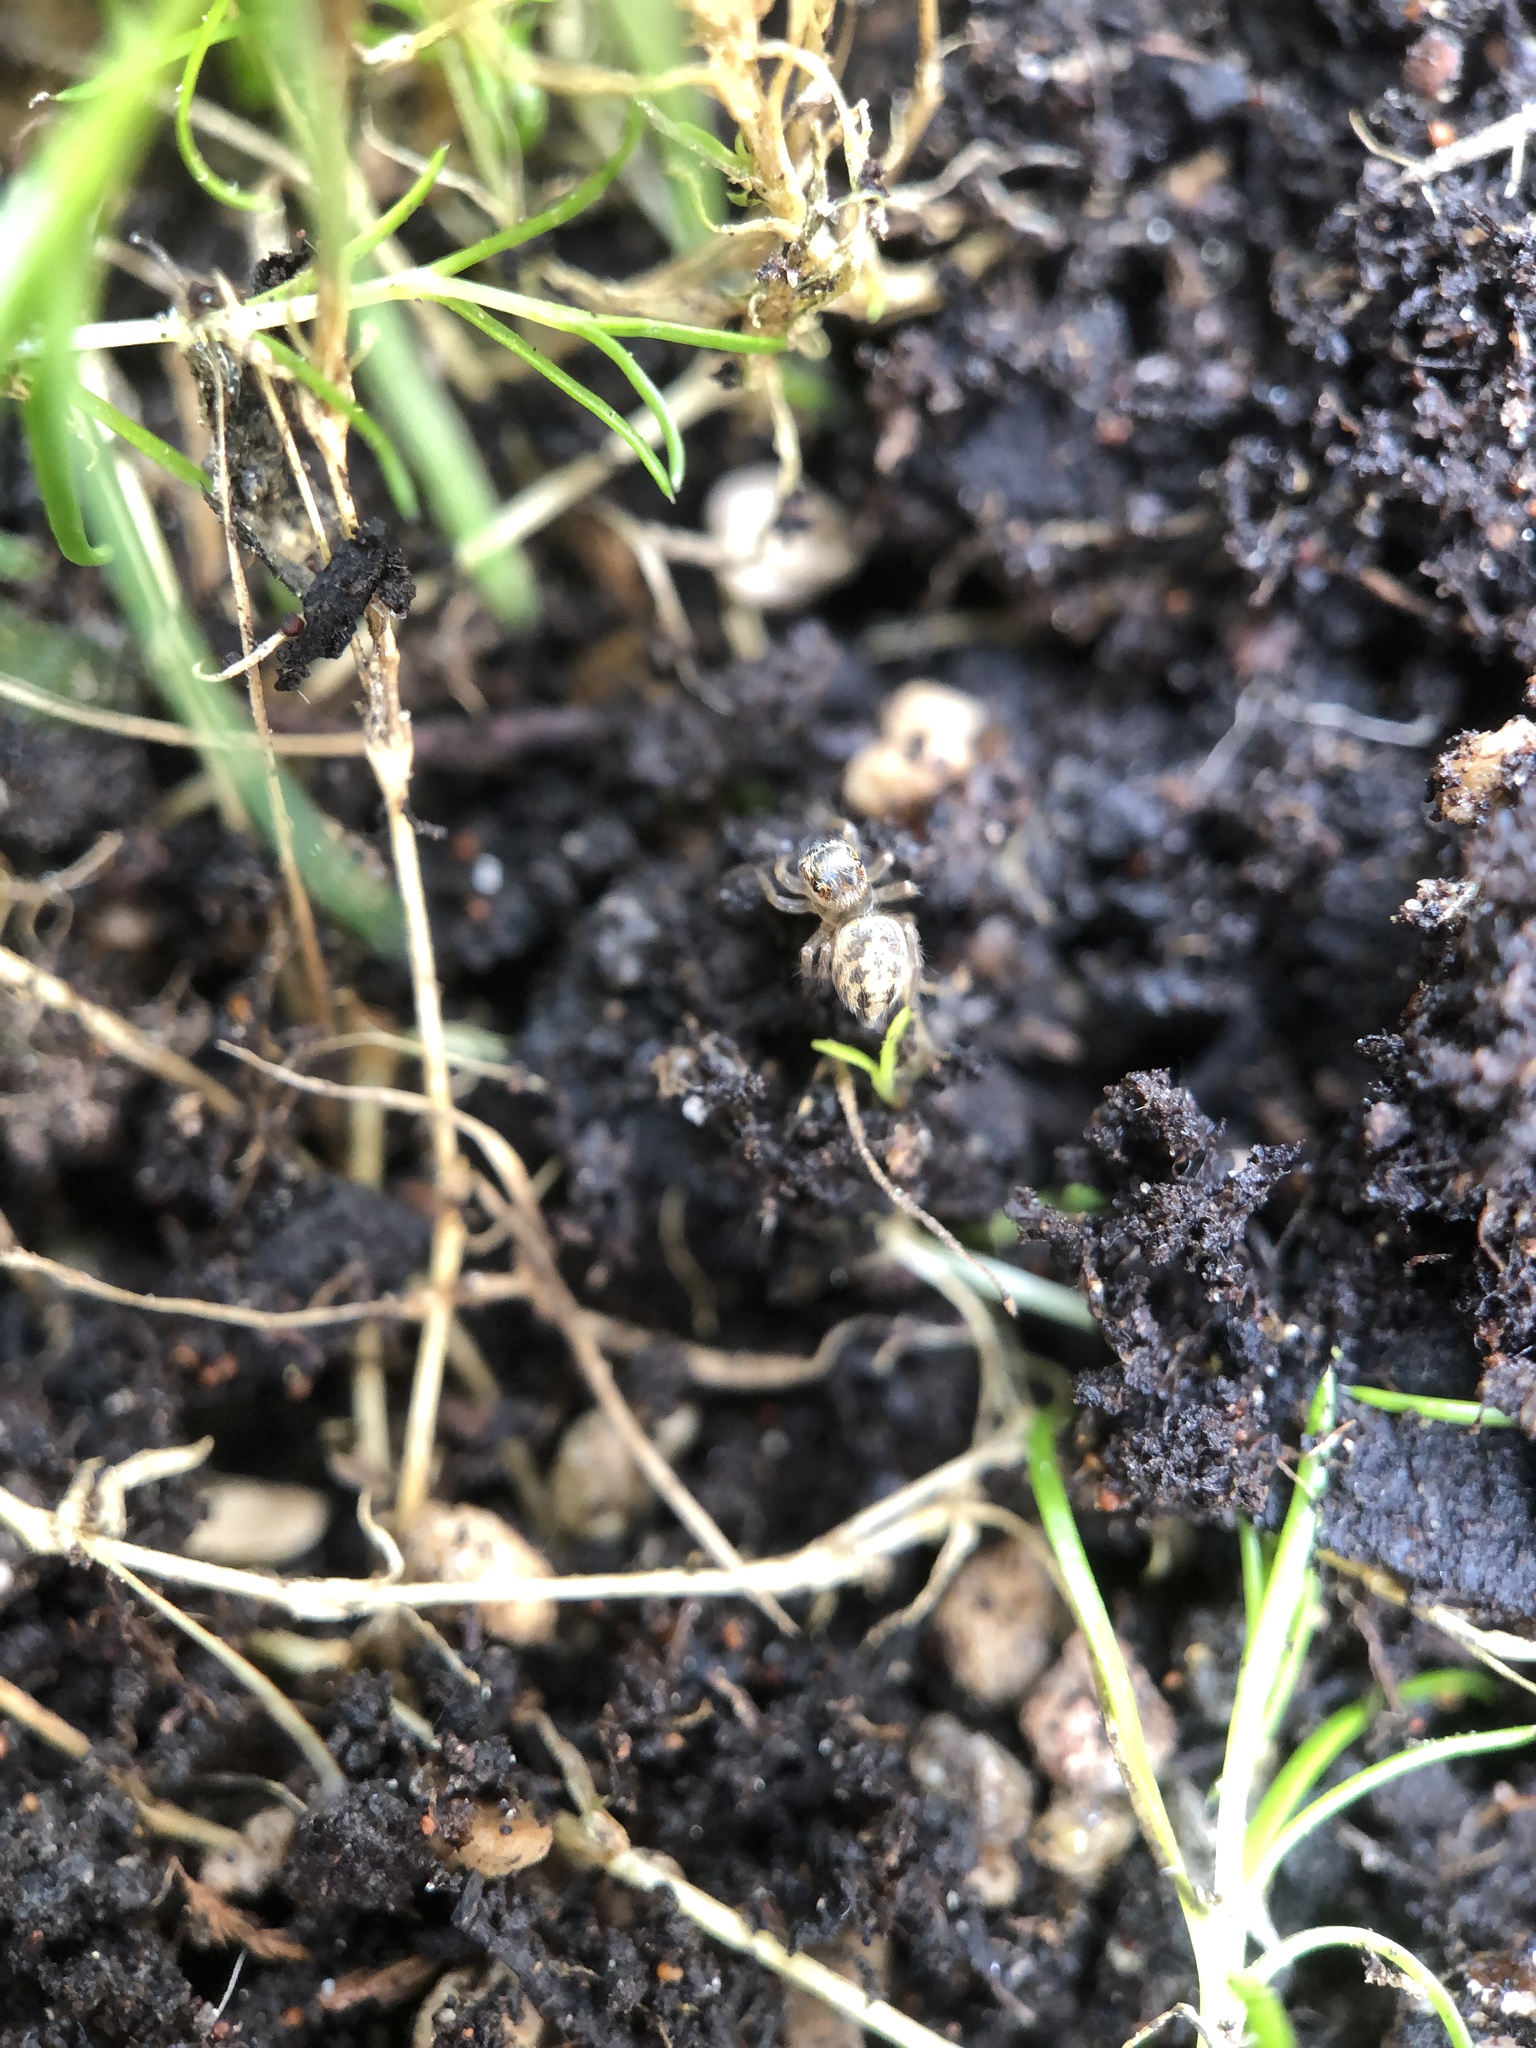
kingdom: Animalia
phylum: Arthropoda
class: Arachnida
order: Araneae
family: Salticidae
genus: Maratus
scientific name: Maratus griseus
